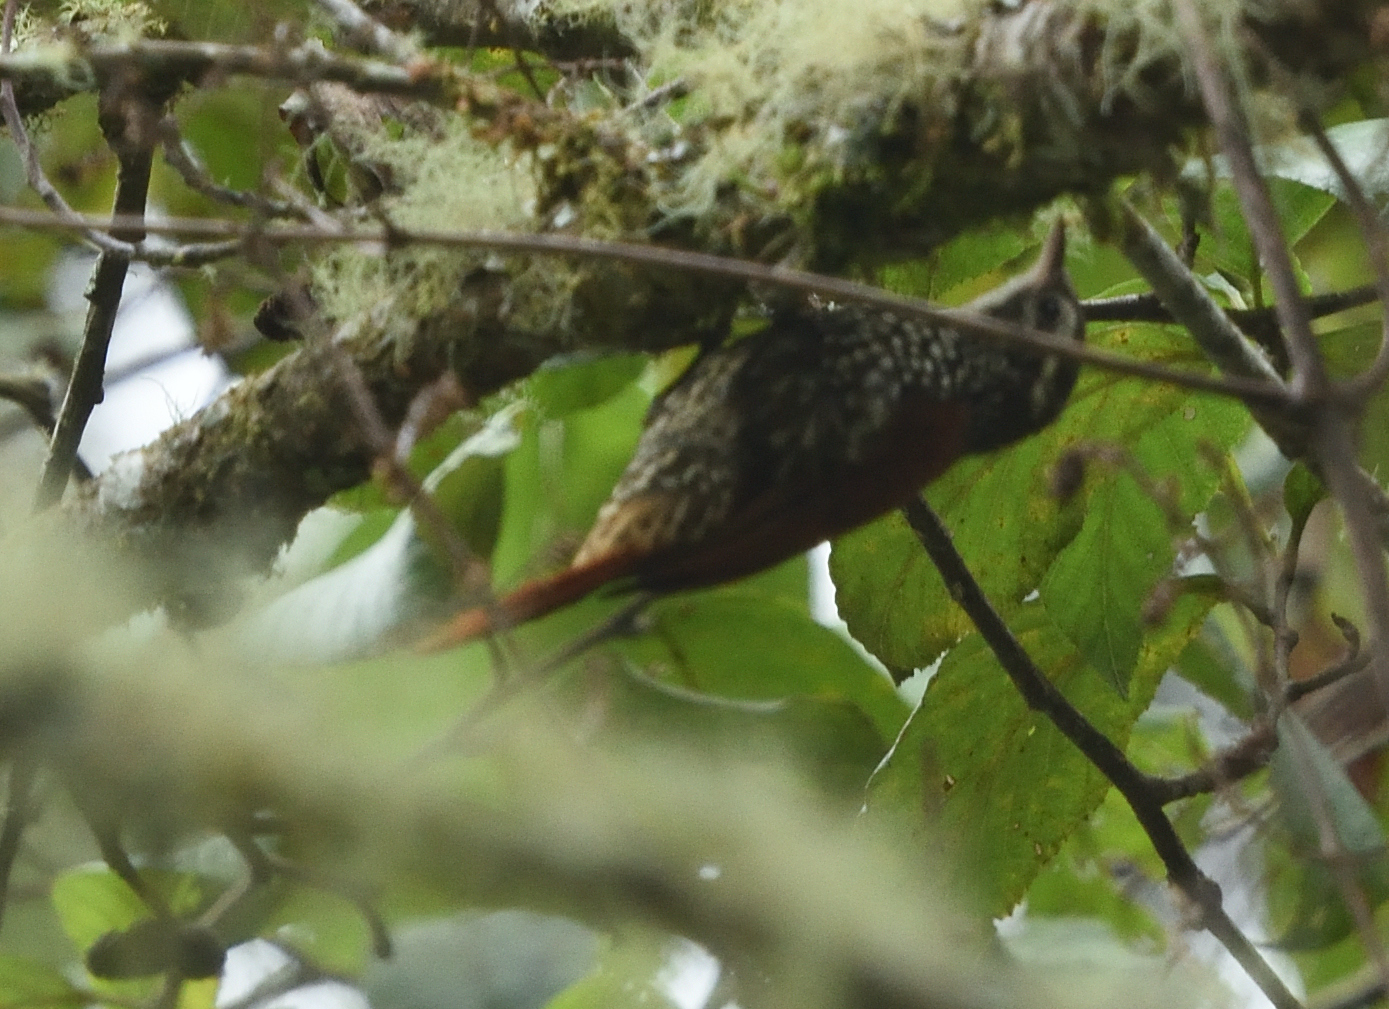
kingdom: Animalia
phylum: Chordata
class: Aves
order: Passeriformes
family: Furnariidae
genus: Margarornis
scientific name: Margarornis squamiger
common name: Pearled treerunner
